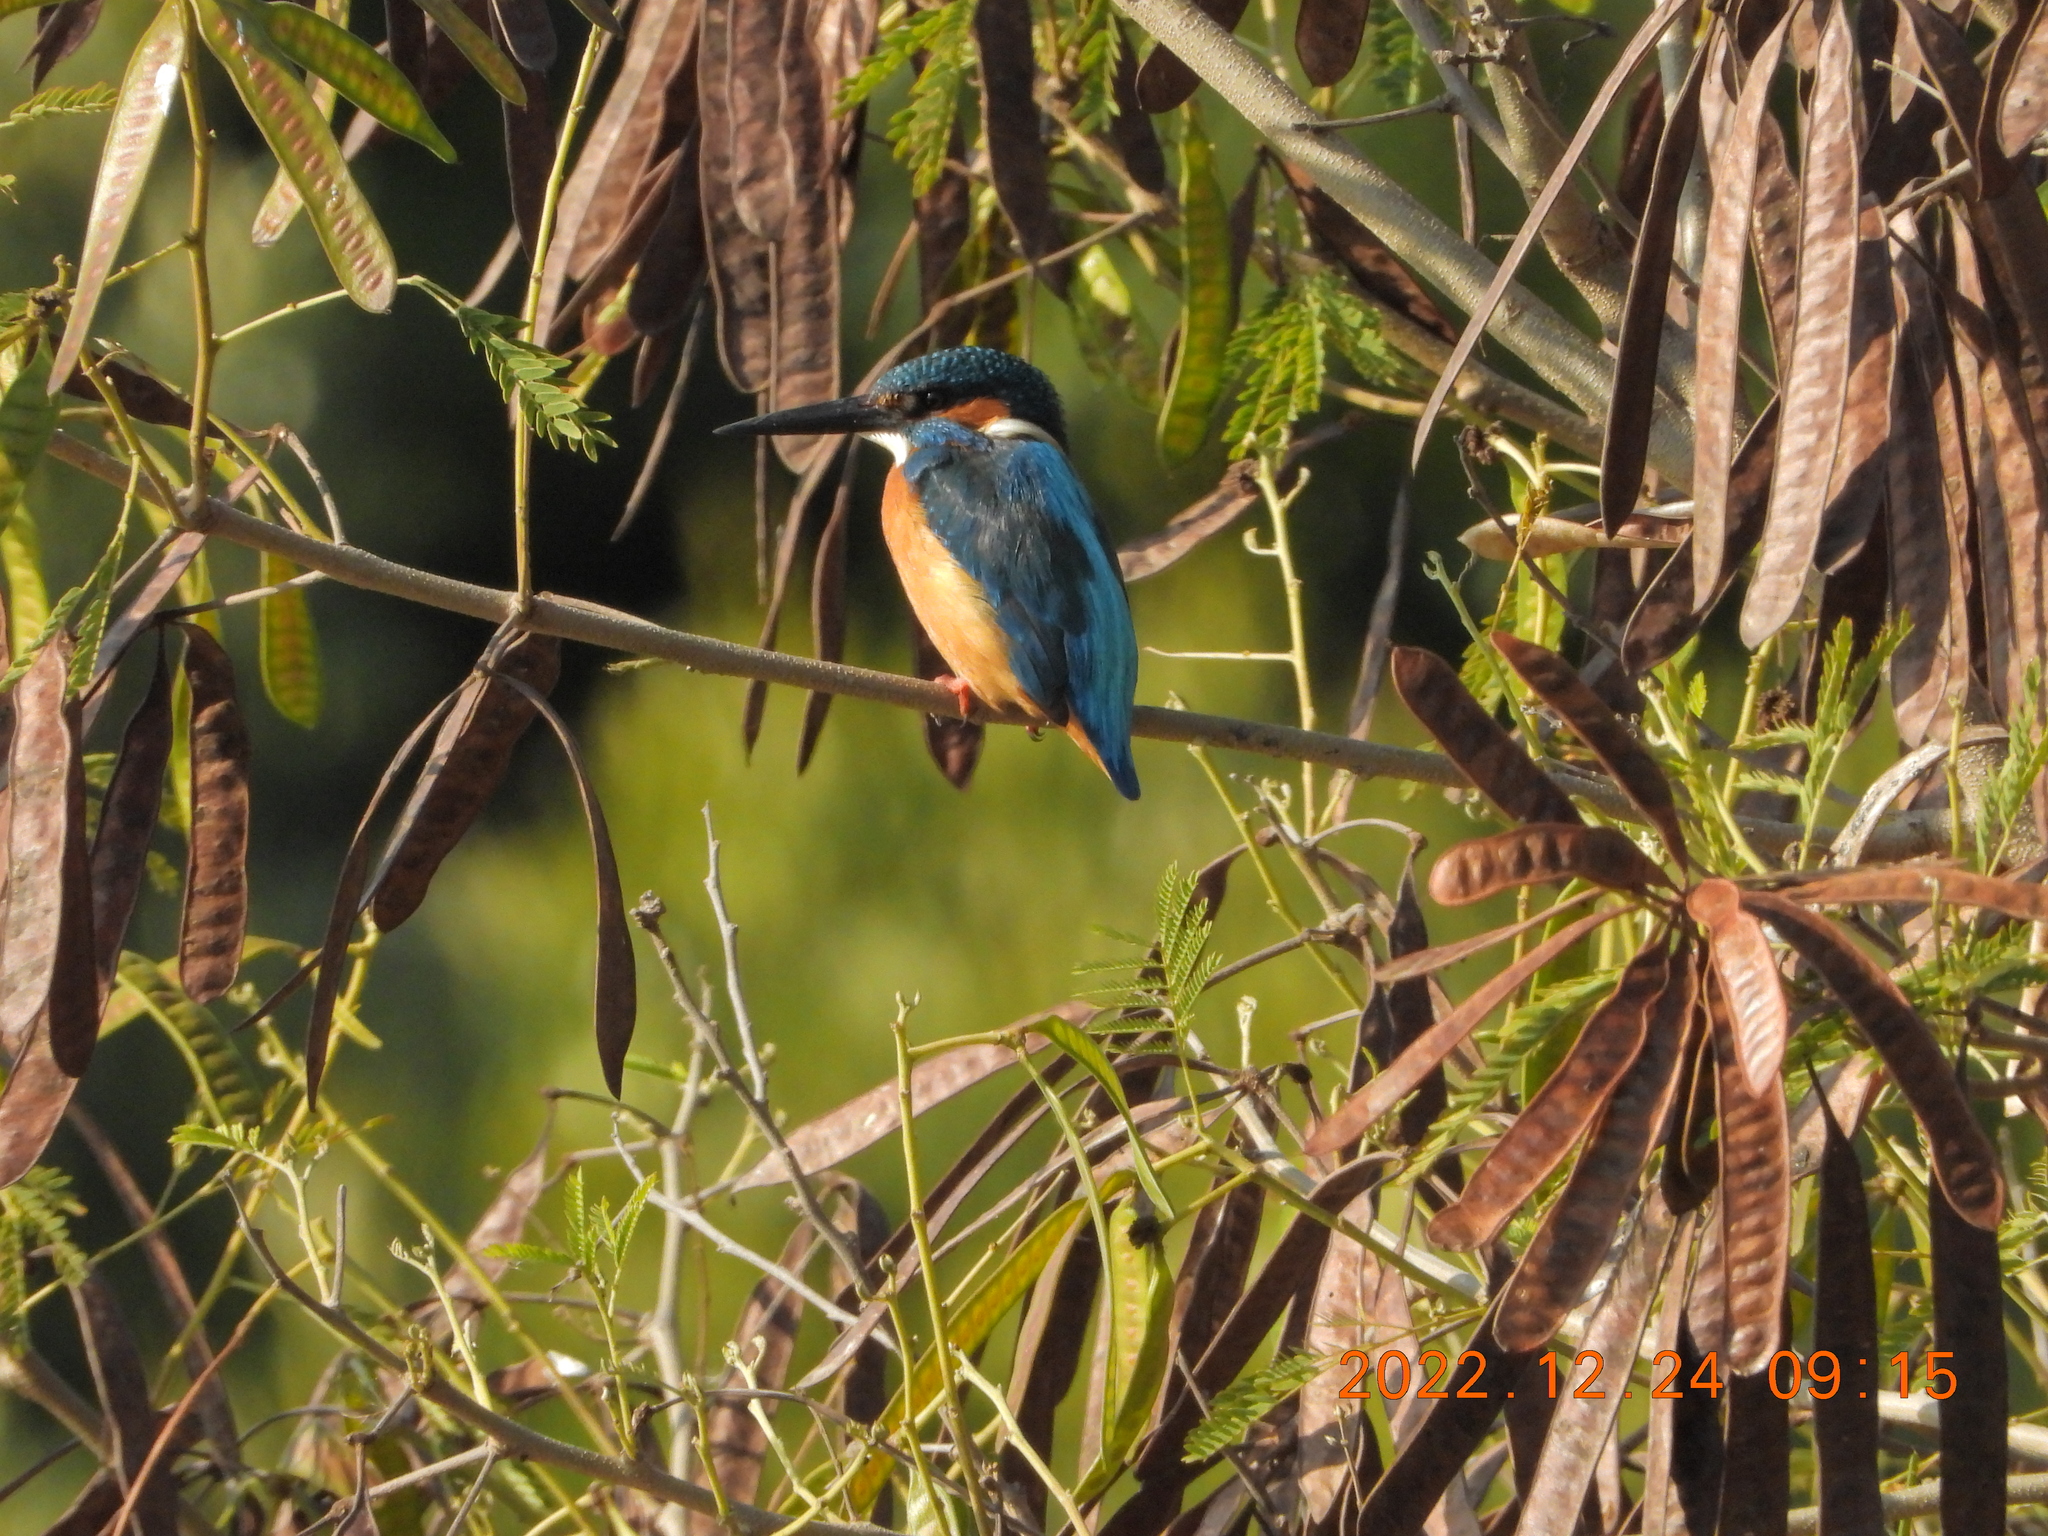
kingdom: Animalia
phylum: Chordata
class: Aves
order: Coraciiformes
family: Alcedinidae
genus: Alcedo
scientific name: Alcedo atthis
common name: Common kingfisher
